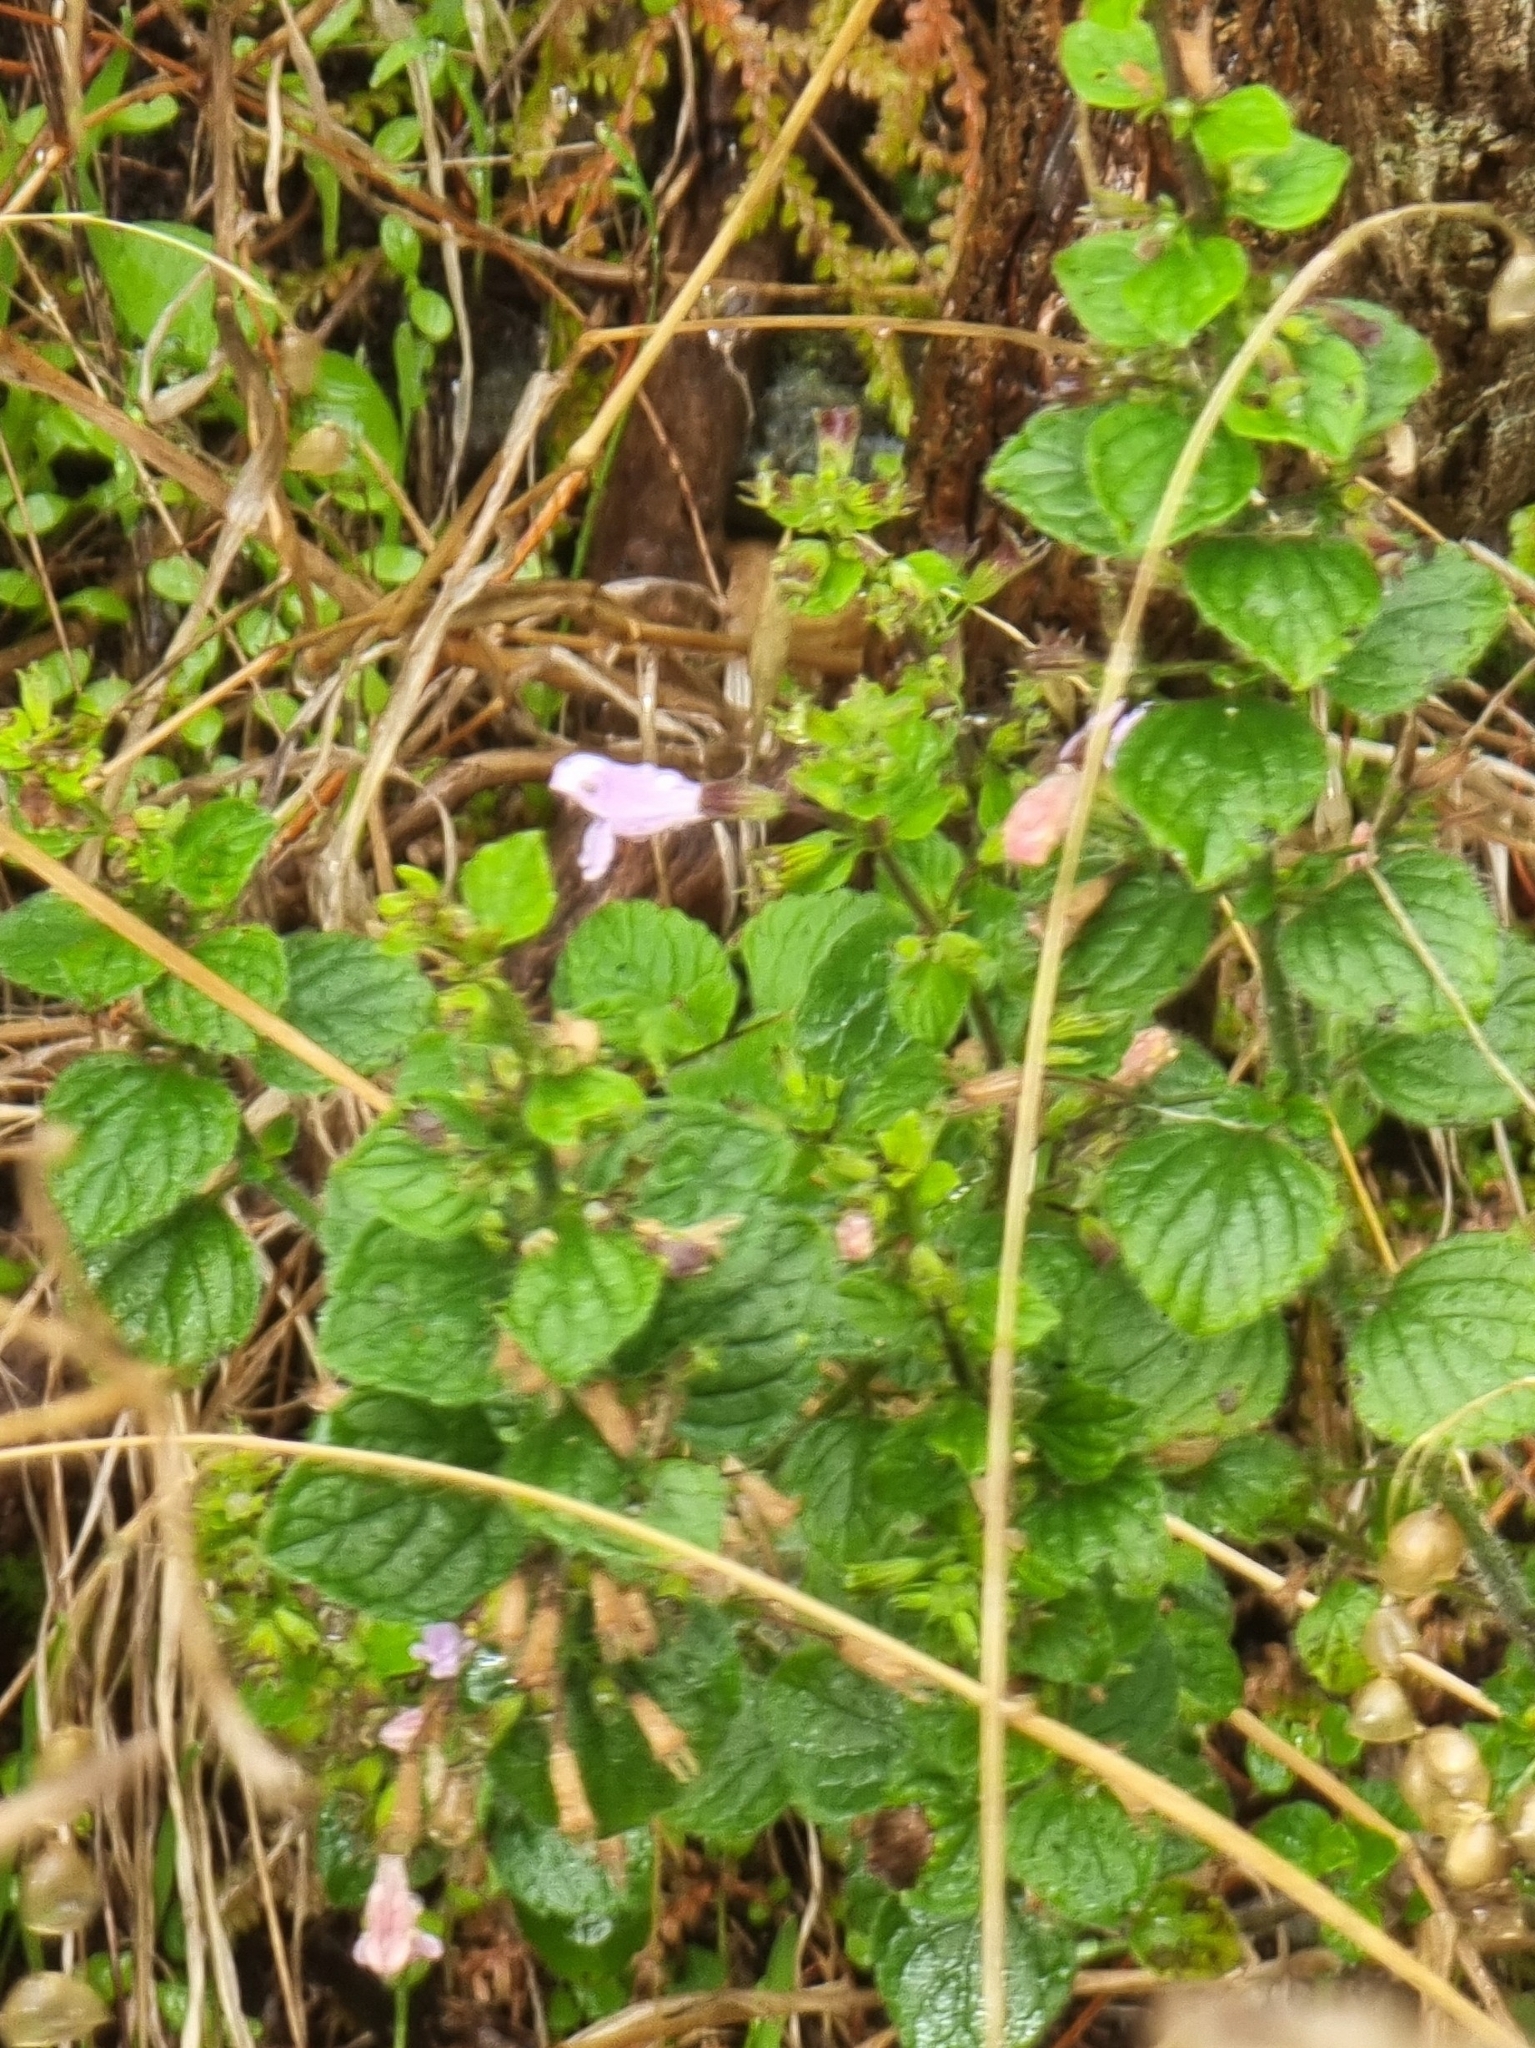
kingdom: Plantae
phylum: Tracheophyta
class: Magnoliopsida
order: Lamiales
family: Lamiaceae
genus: Clinopodium
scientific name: Clinopodium menthifolium
